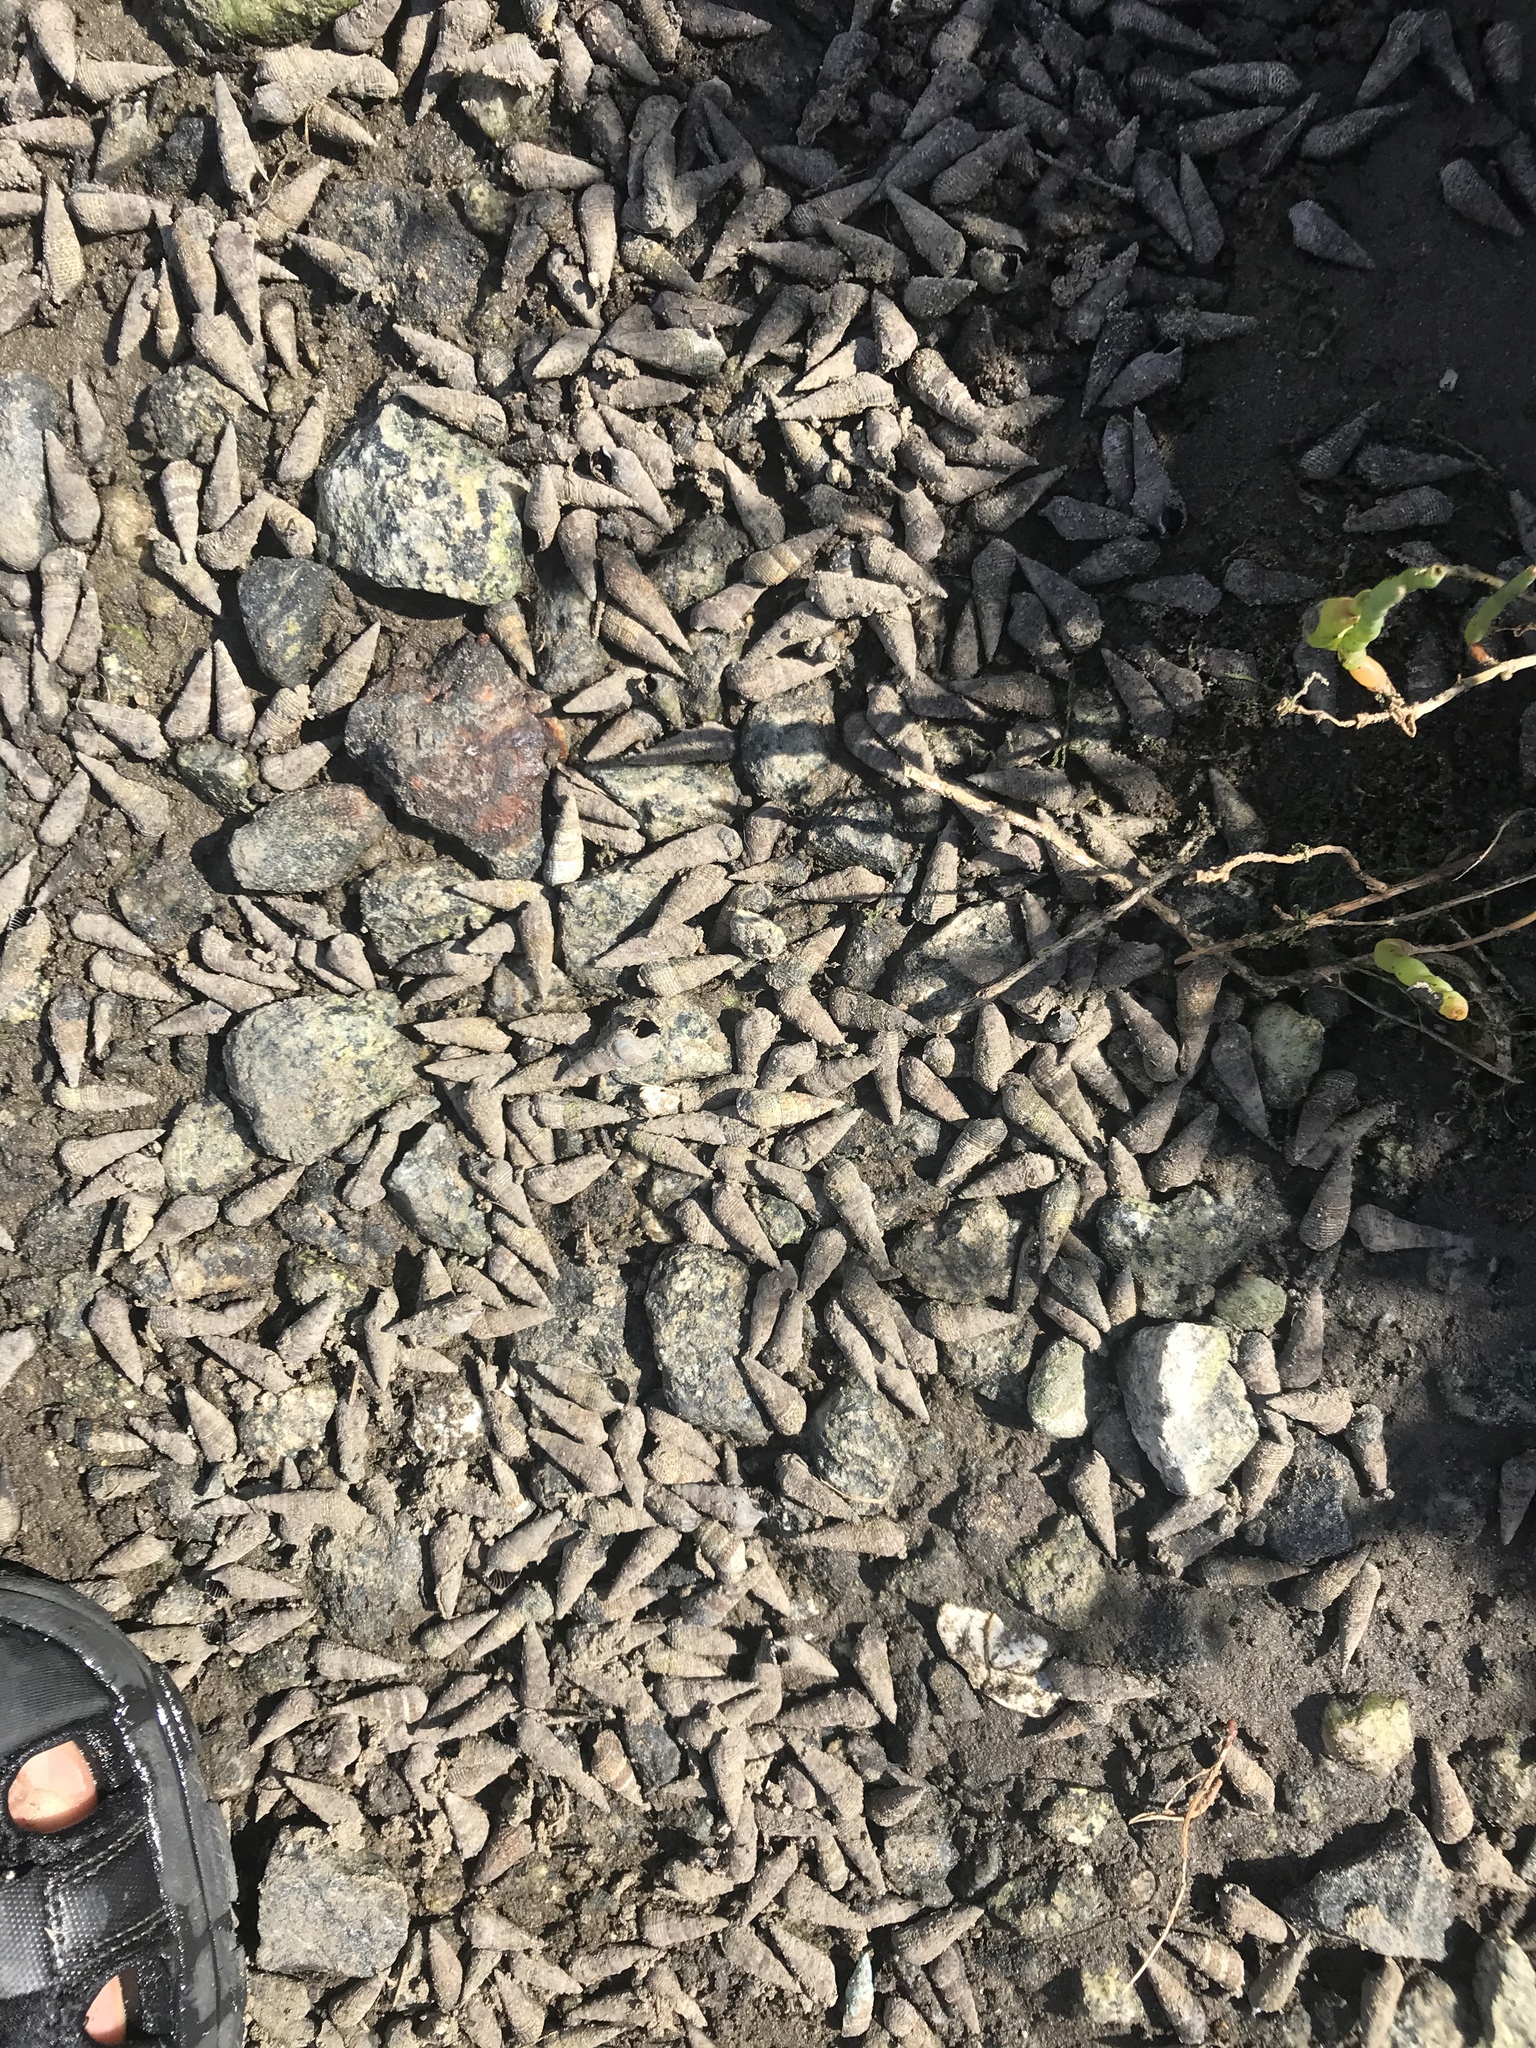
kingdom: Animalia
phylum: Mollusca
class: Gastropoda
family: Batillariidae
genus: Batillaria
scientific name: Batillaria attramentaria
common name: Japanese false cerith
